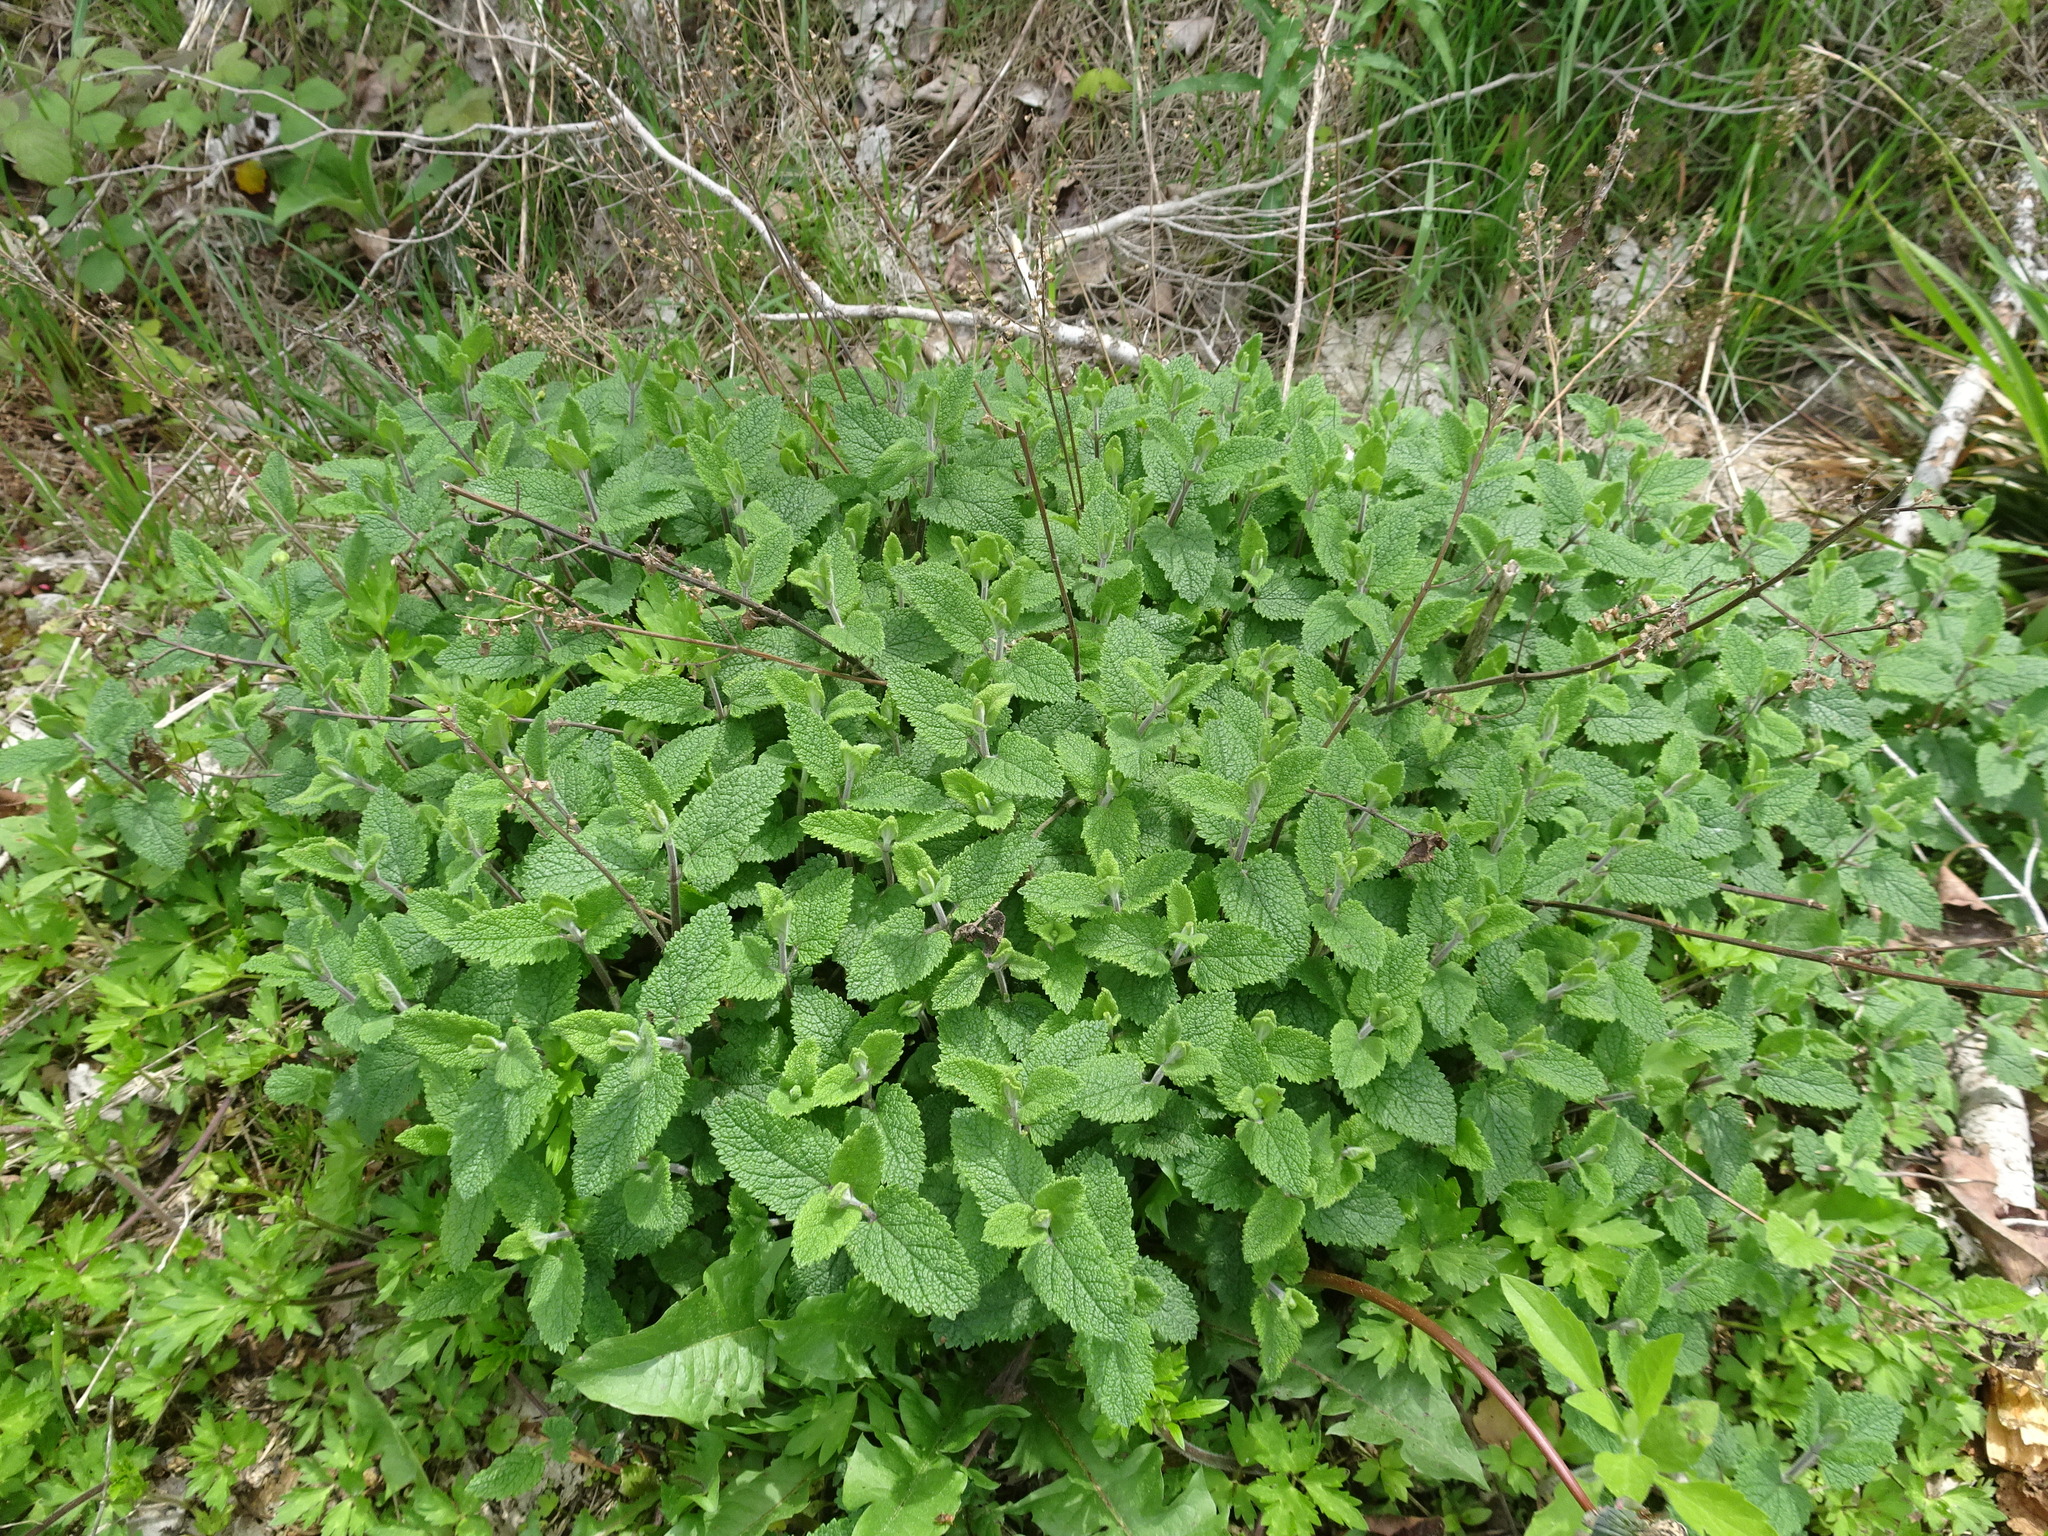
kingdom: Plantae
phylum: Tracheophyta
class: Magnoliopsida
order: Lamiales
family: Lamiaceae
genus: Teucrium
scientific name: Teucrium scorodonia
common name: Woodland germander
